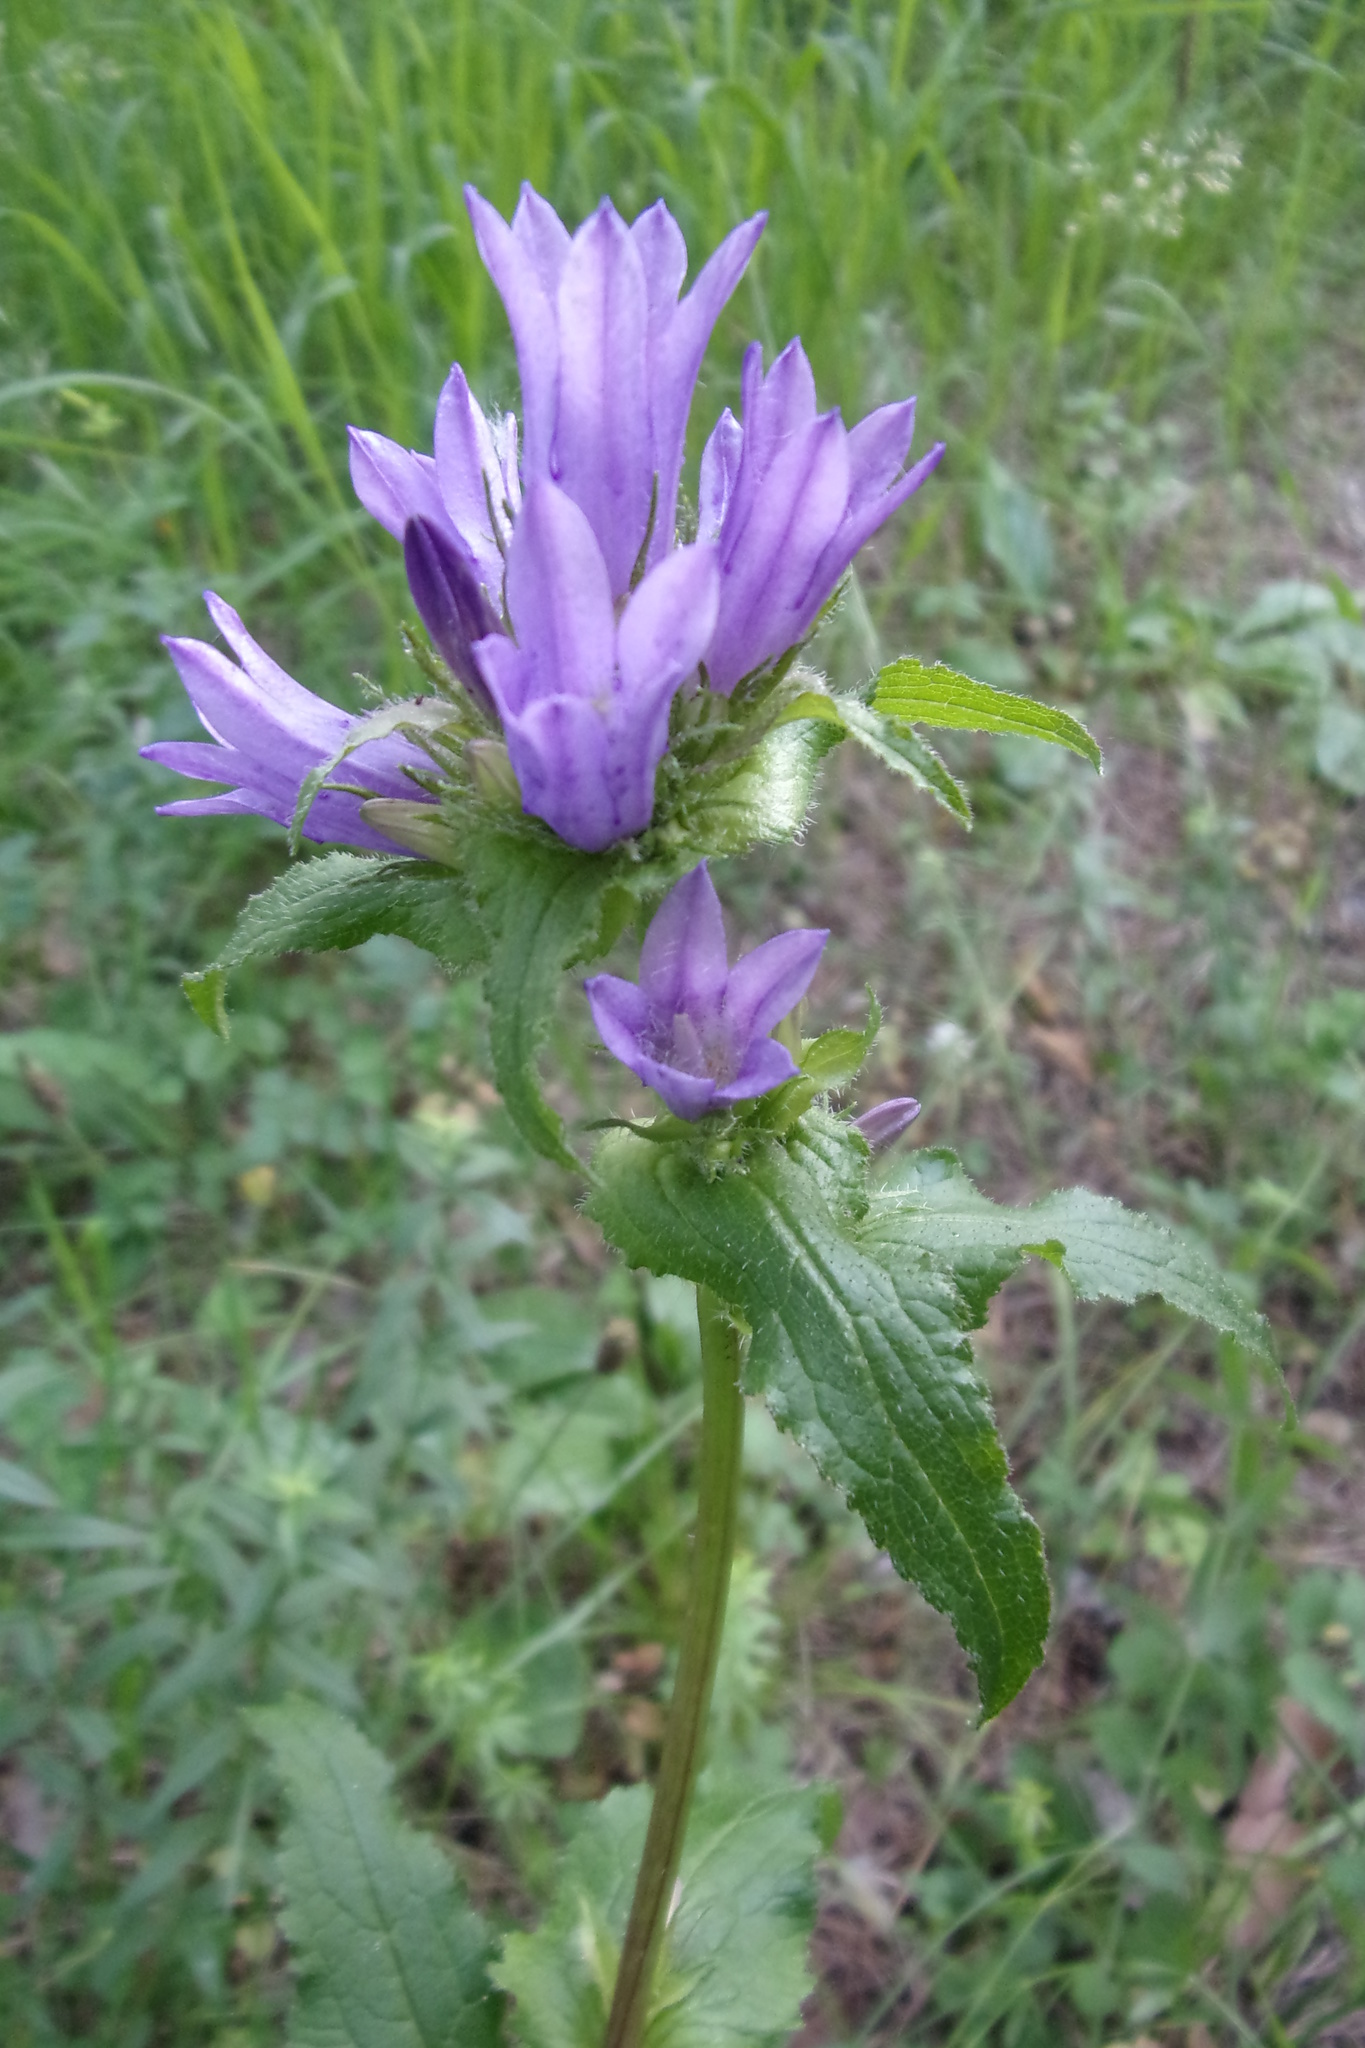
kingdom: Plantae
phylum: Tracheophyta
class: Magnoliopsida
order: Asterales
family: Campanulaceae
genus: Campanula
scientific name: Campanula glomerata
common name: Clustered bellflower
